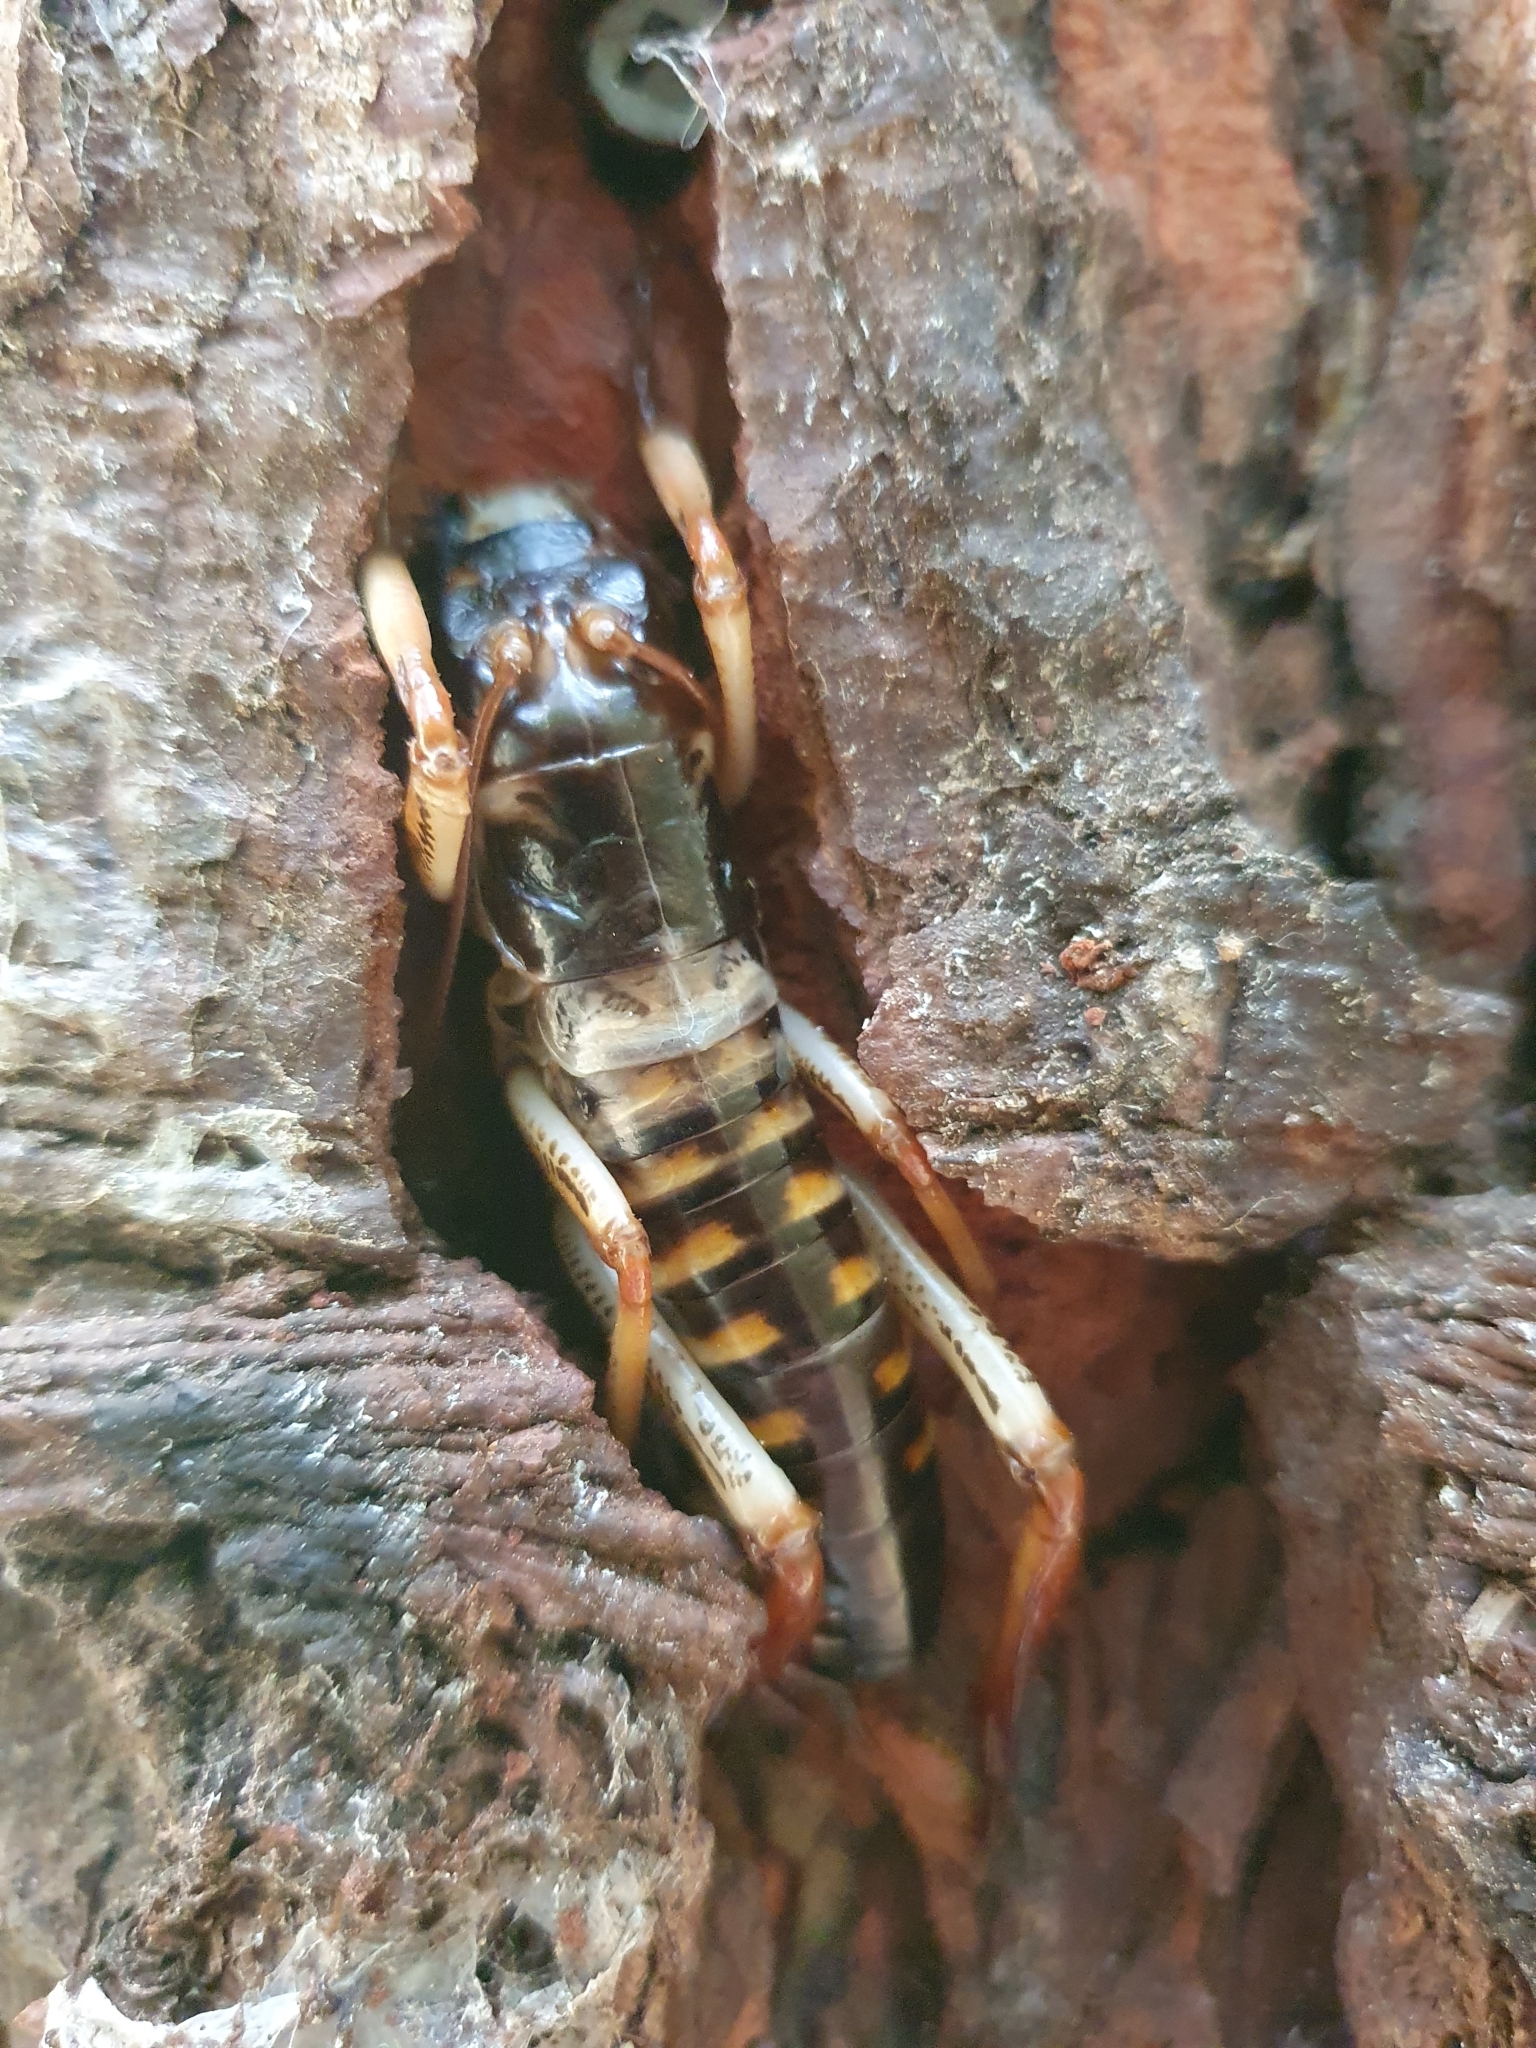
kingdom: Animalia
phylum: Arthropoda
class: Insecta
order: Orthoptera
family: Anostostomatidae
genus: Hemideina
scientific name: Hemideina crassidens
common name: Wellington tree weta
